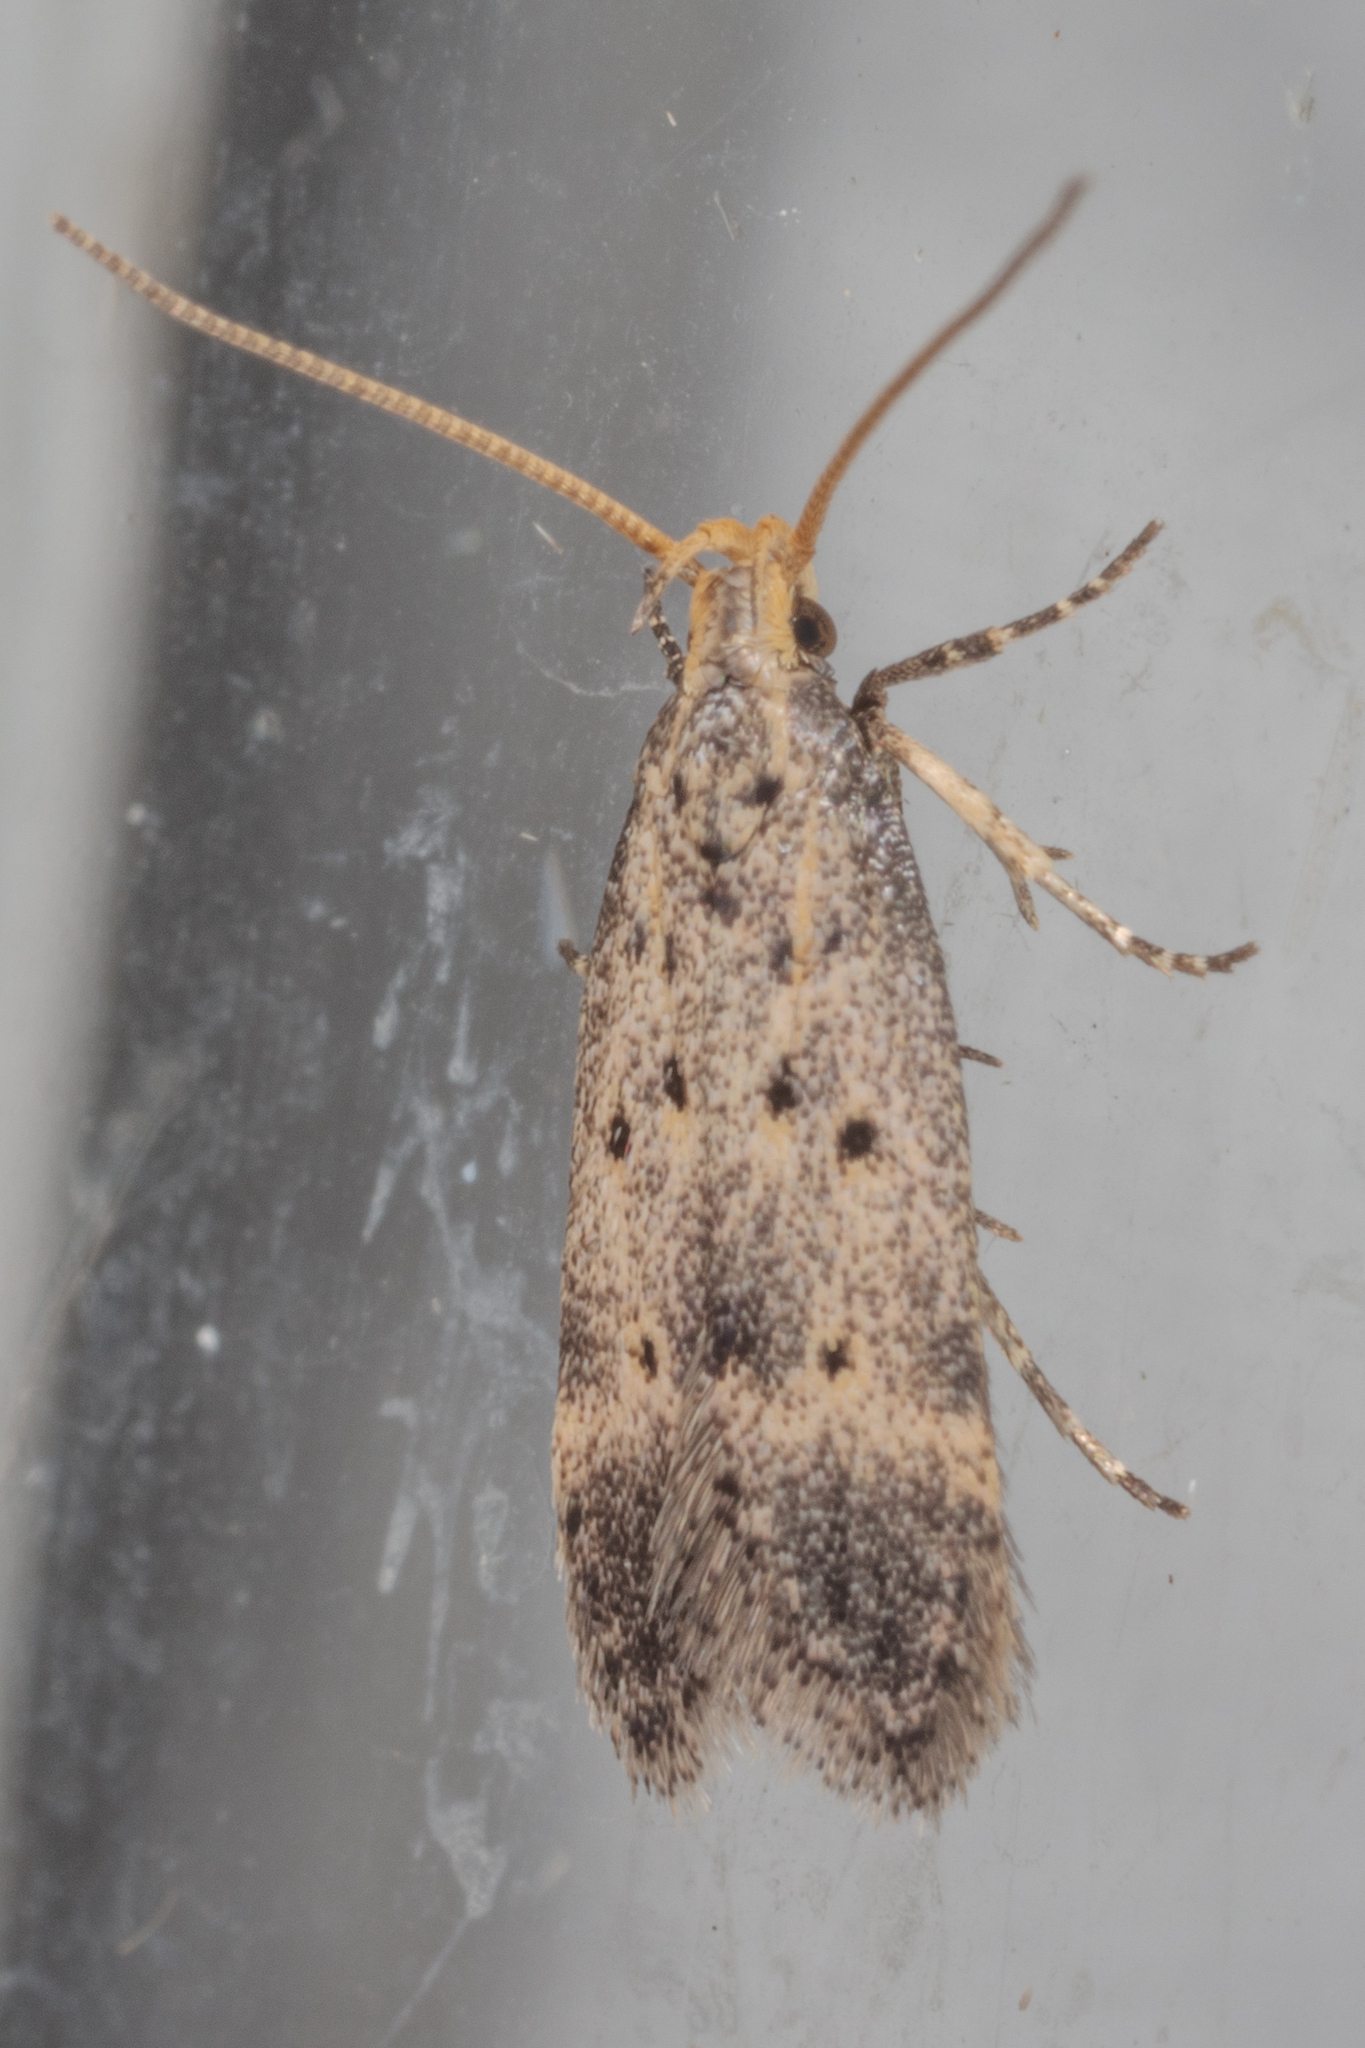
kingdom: Animalia
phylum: Arthropoda
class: Insecta
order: Lepidoptera
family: Gelechiidae
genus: Neodactylota
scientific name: Neodactylota liguritrix
